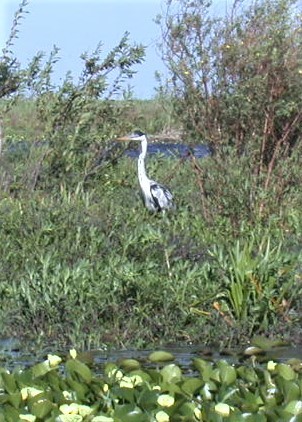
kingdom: Animalia
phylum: Chordata
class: Aves
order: Pelecaniformes
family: Ardeidae
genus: Ardea
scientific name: Ardea cocoi
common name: Cocoi heron
